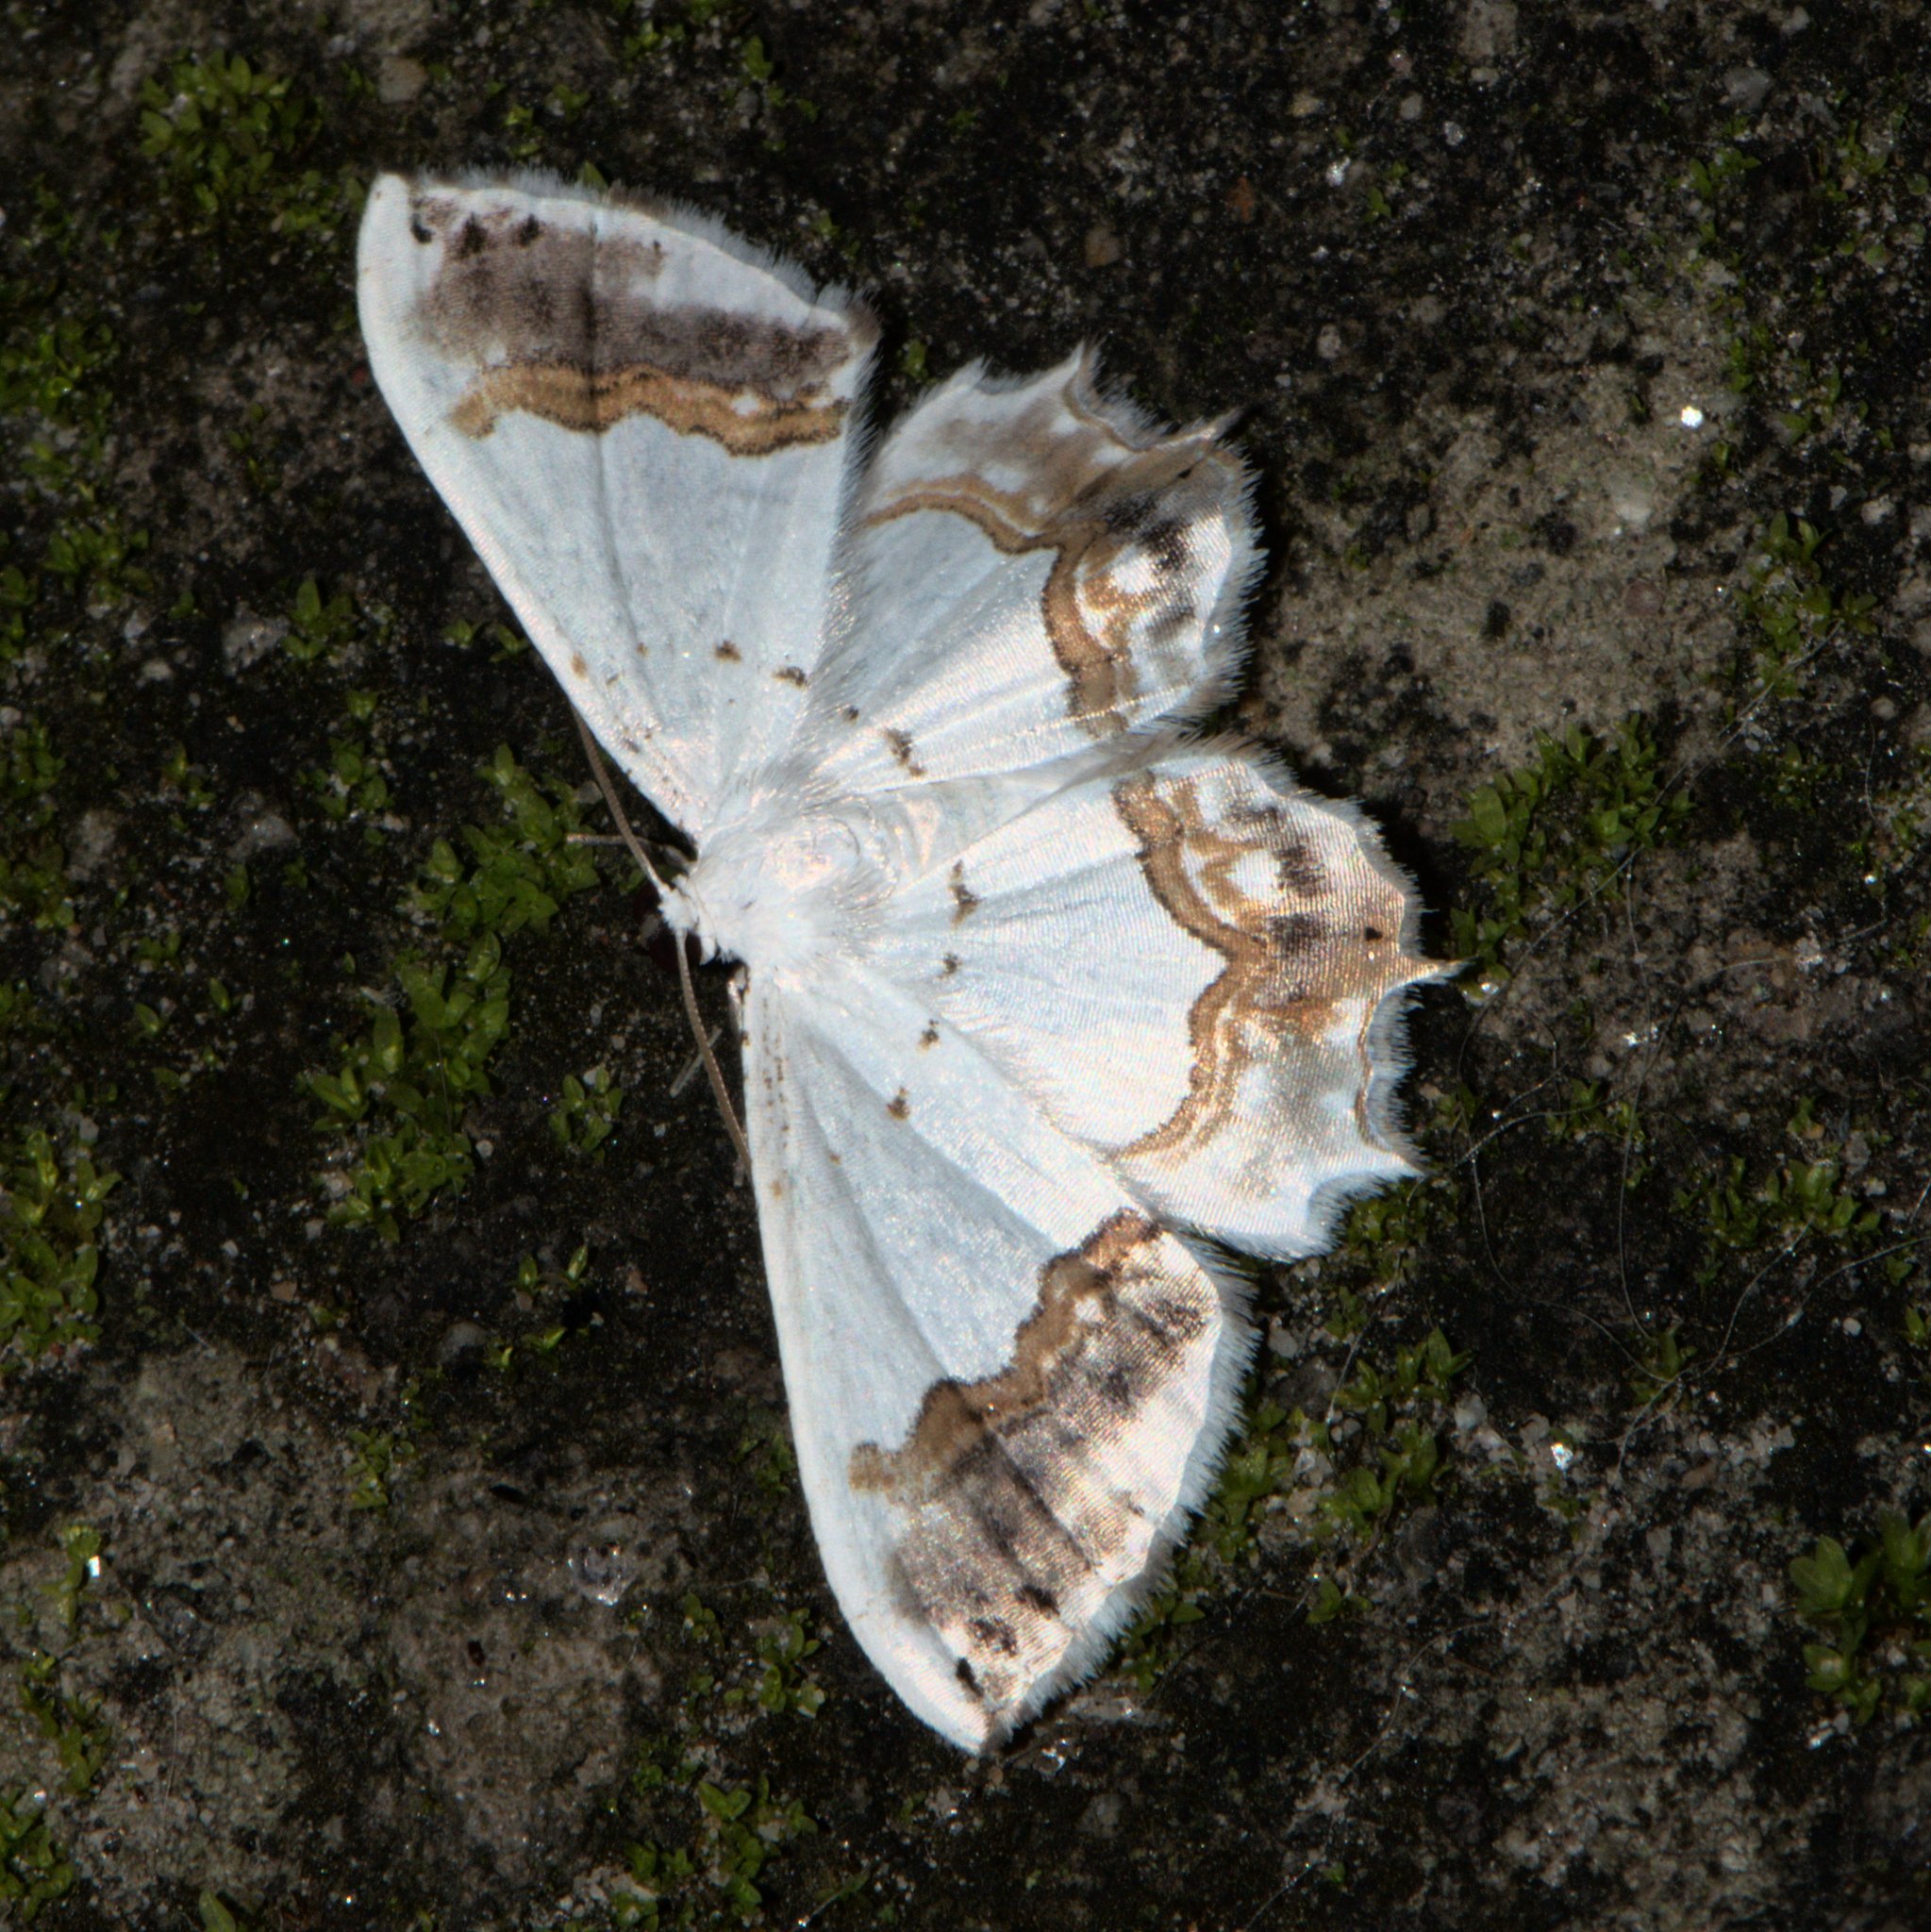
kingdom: Animalia
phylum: Arthropoda
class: Insecta
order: Lepidoptera
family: Uraniidae
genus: Epiplema
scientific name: Epiplema
